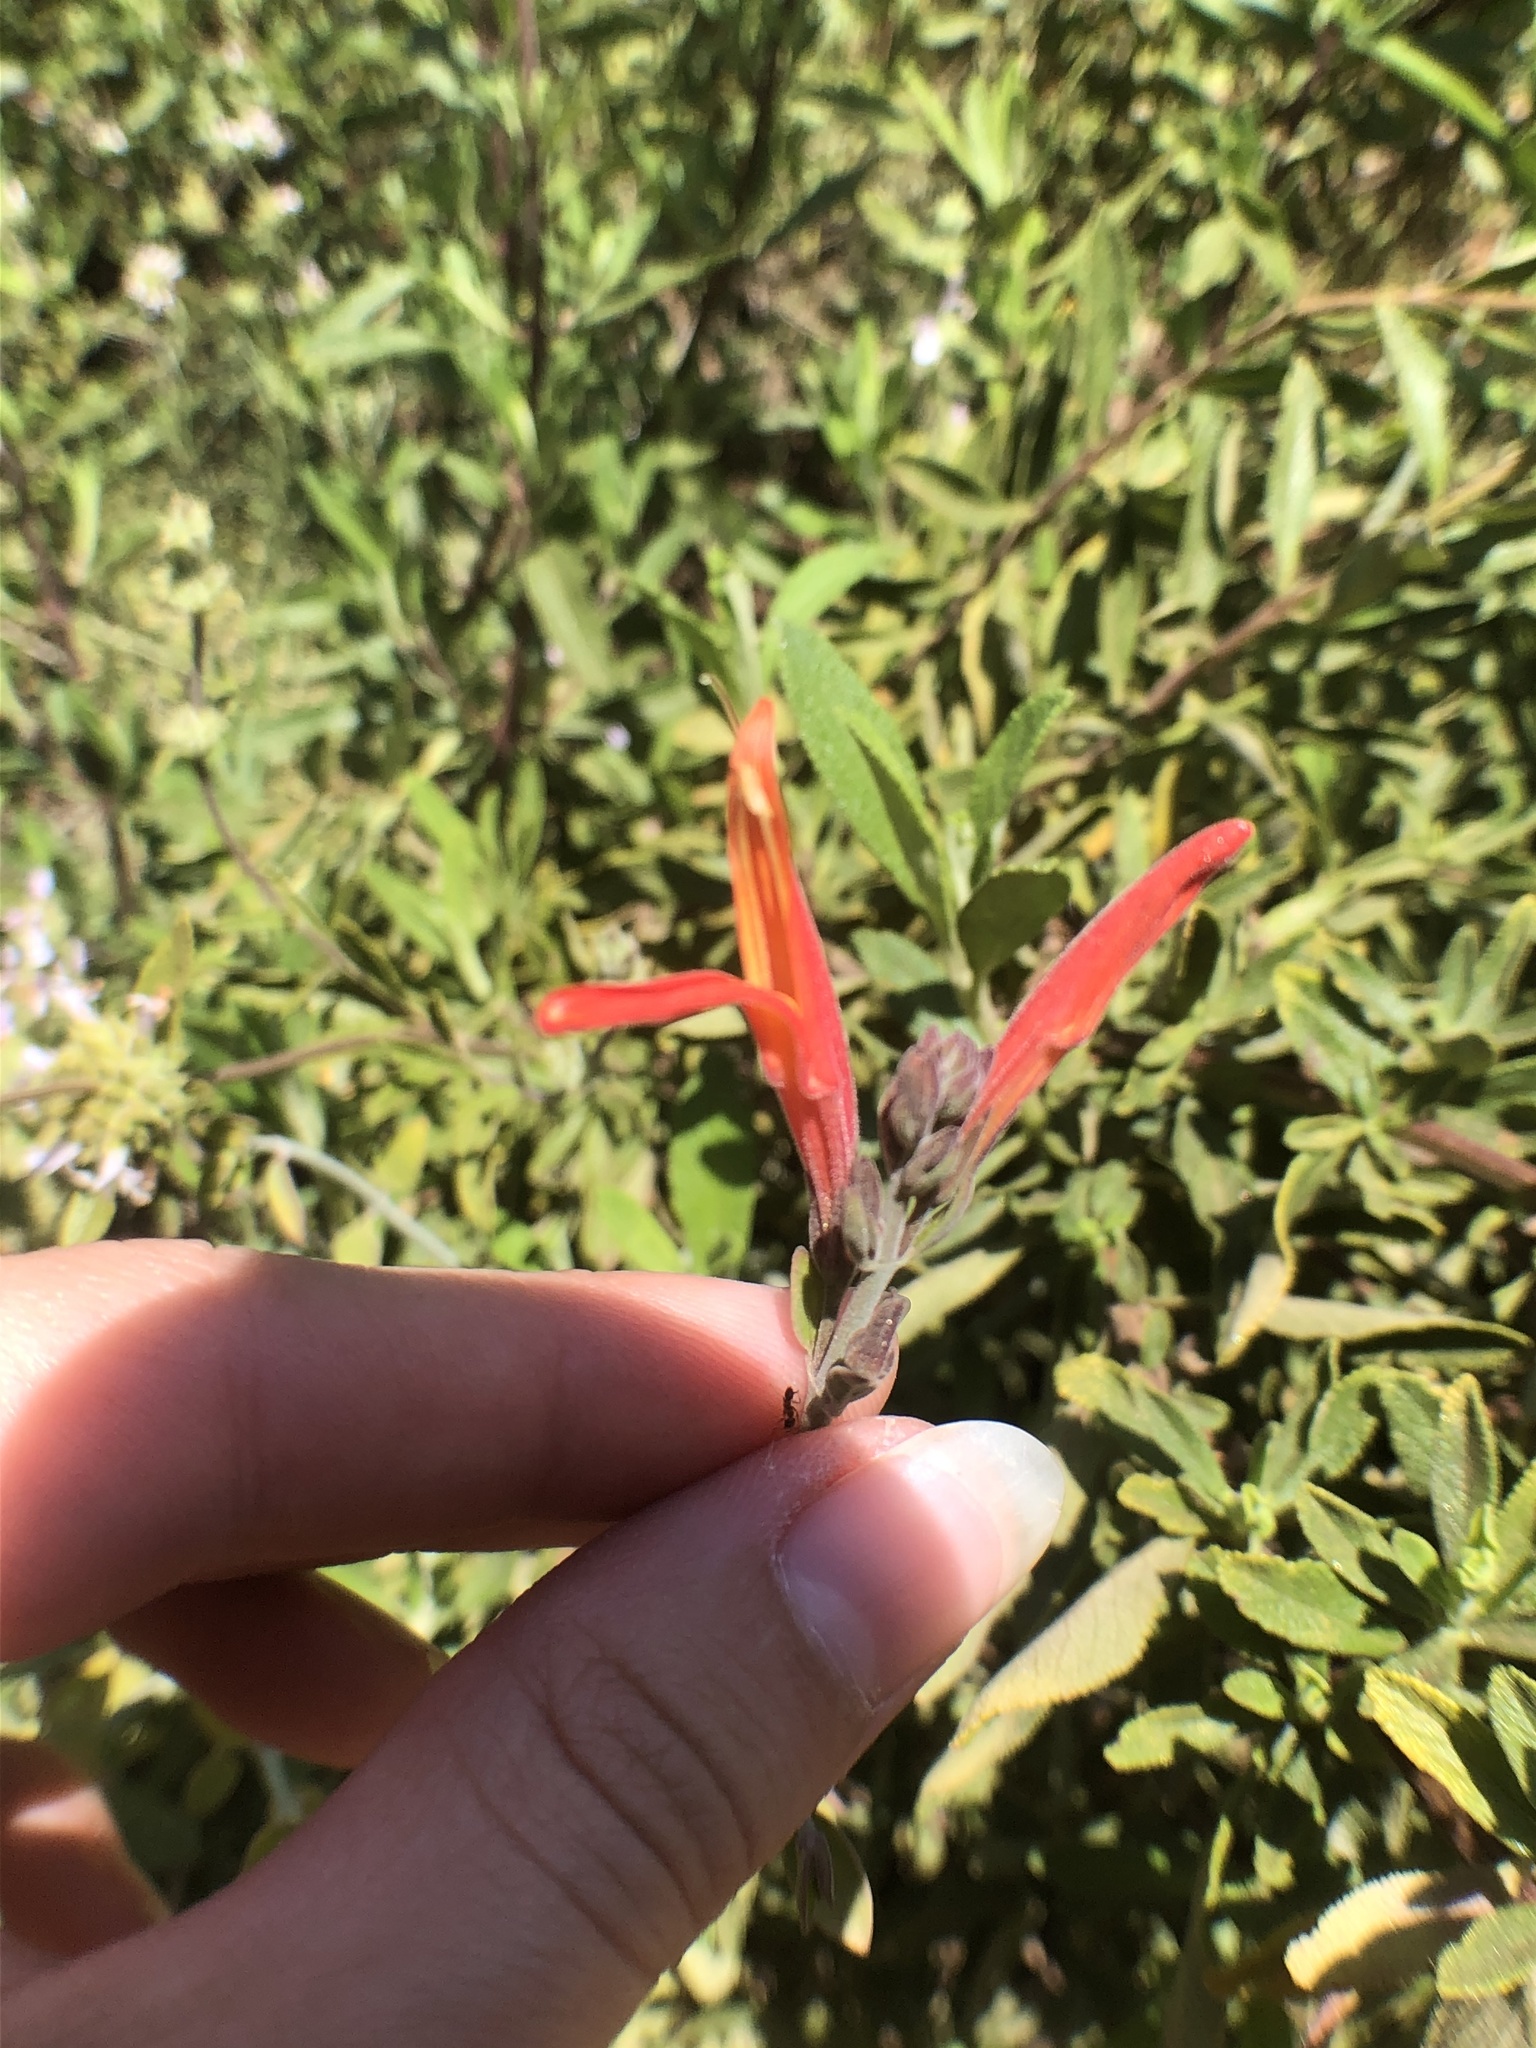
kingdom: Plantae
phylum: Tracheophyta
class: Magnoliopsida
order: Lamiales
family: Acanthaceae
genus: Justicia
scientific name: Justicia californica
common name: Chuparosa-honeysuckle
